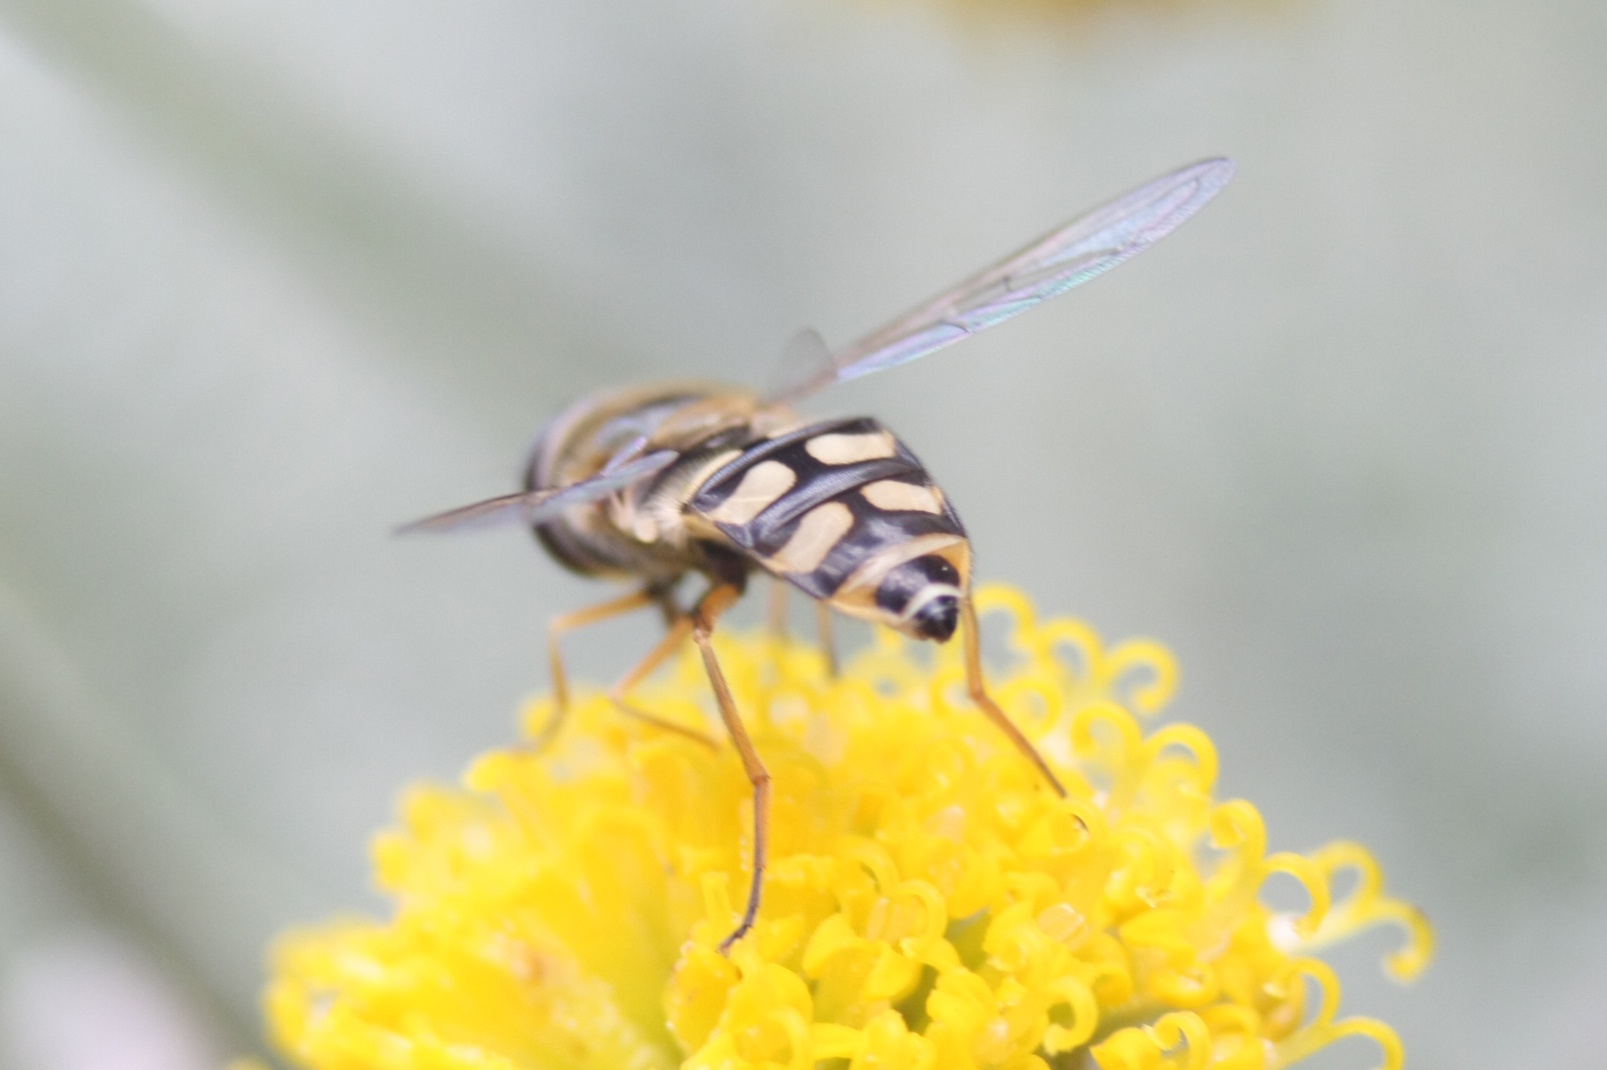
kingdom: Animalia
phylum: Arthropoda
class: Insecta
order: Diptera
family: Syrphidae
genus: Eupeodes
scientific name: Eupeodes corollae
